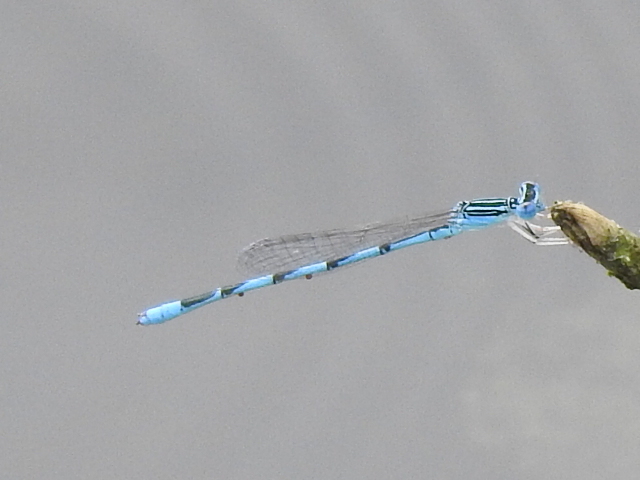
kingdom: Animalia
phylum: Arthropoda
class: Insecta
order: Odonata
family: Coenagrionidae
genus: Enallagma
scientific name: Enallagma basidens
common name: Double-striped bluet
